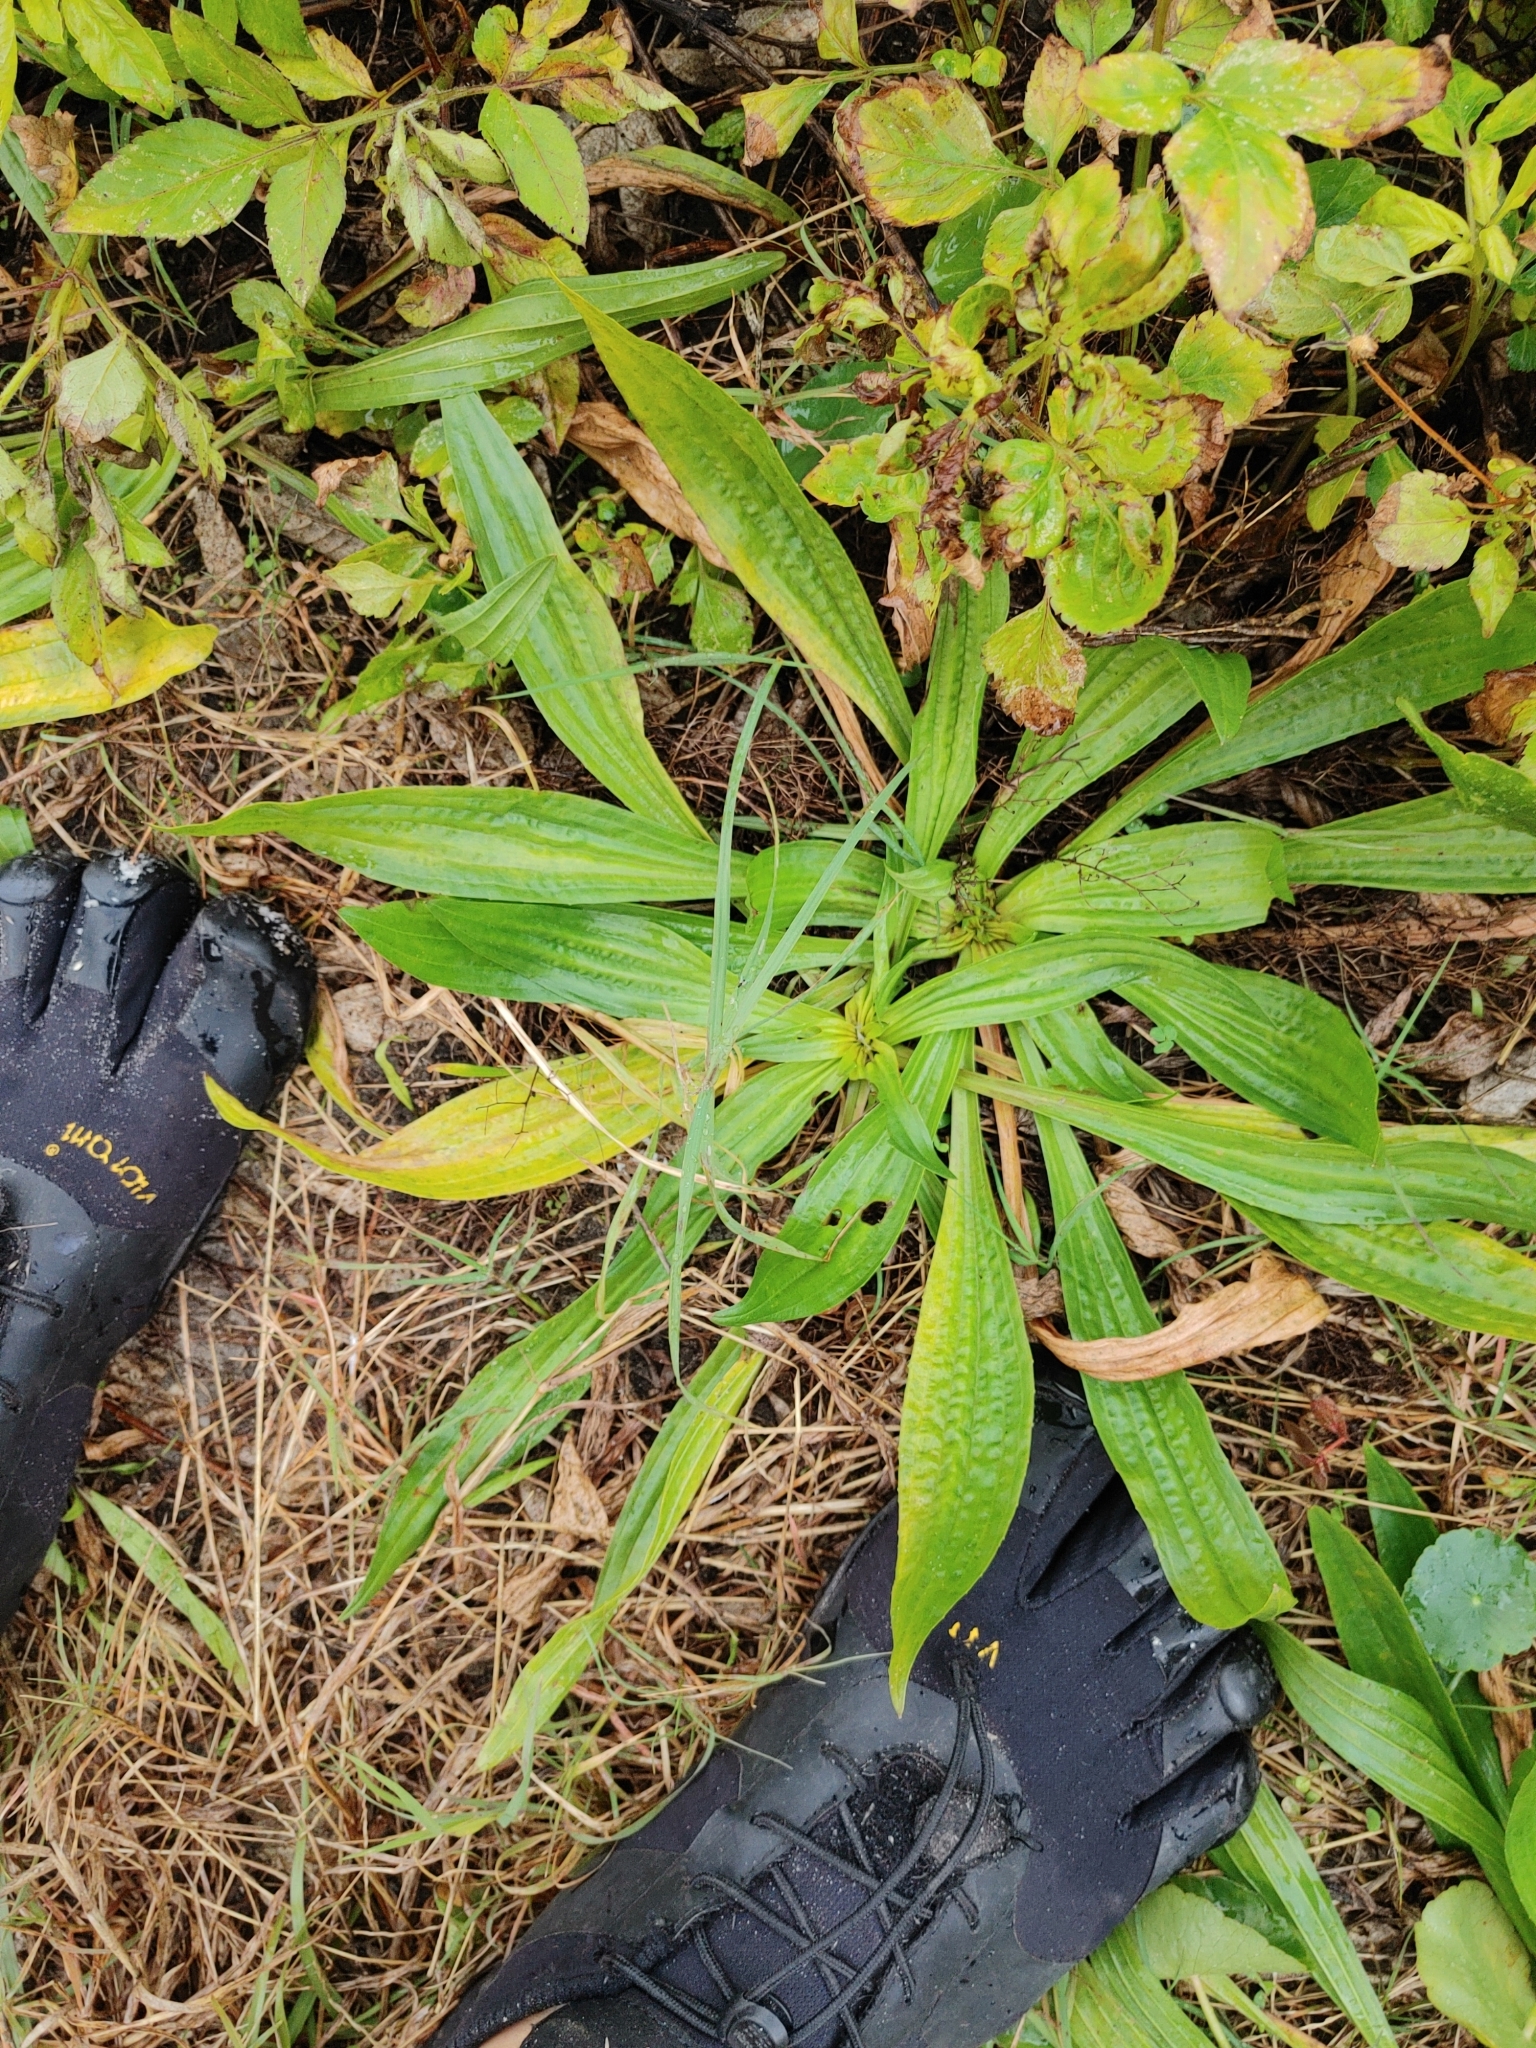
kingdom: Plantae
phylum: Tracheophyta
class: Magnoliopsida
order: Lamiales
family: Plantaginaceae
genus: Plantago
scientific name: Plantago lanceolata
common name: Ribwort plantain
